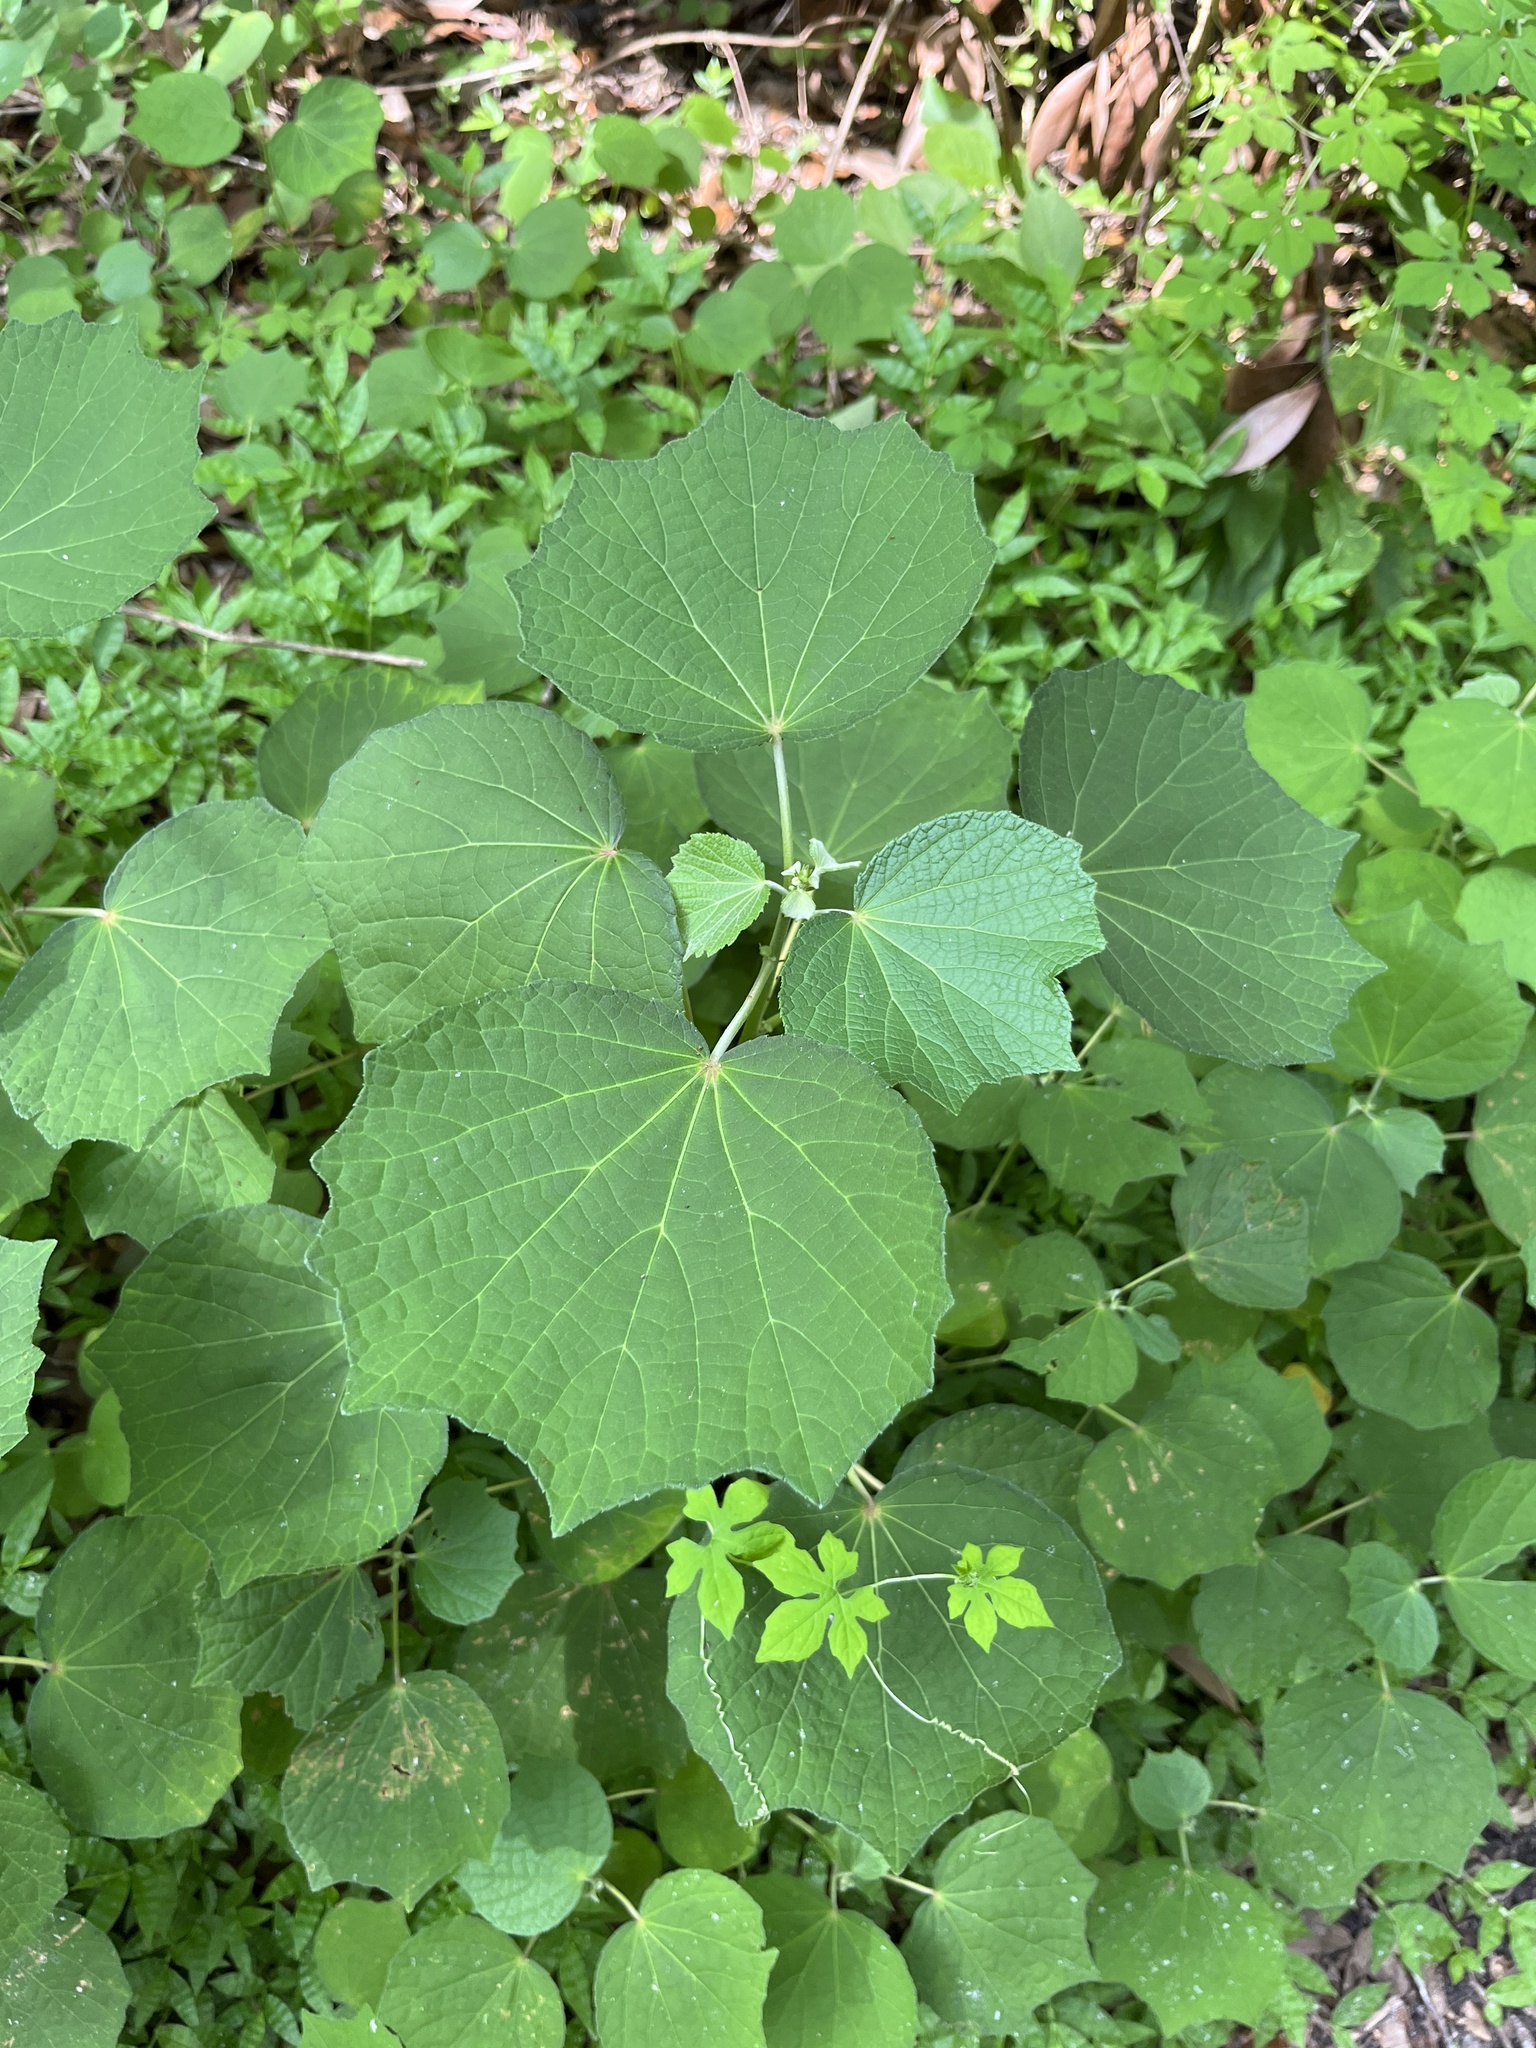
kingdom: Plantae
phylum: Tracheophyta
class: Magnoliopsida
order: Malvales
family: Malvaceae
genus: Urena
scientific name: Urena lobata
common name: Caesarweed
